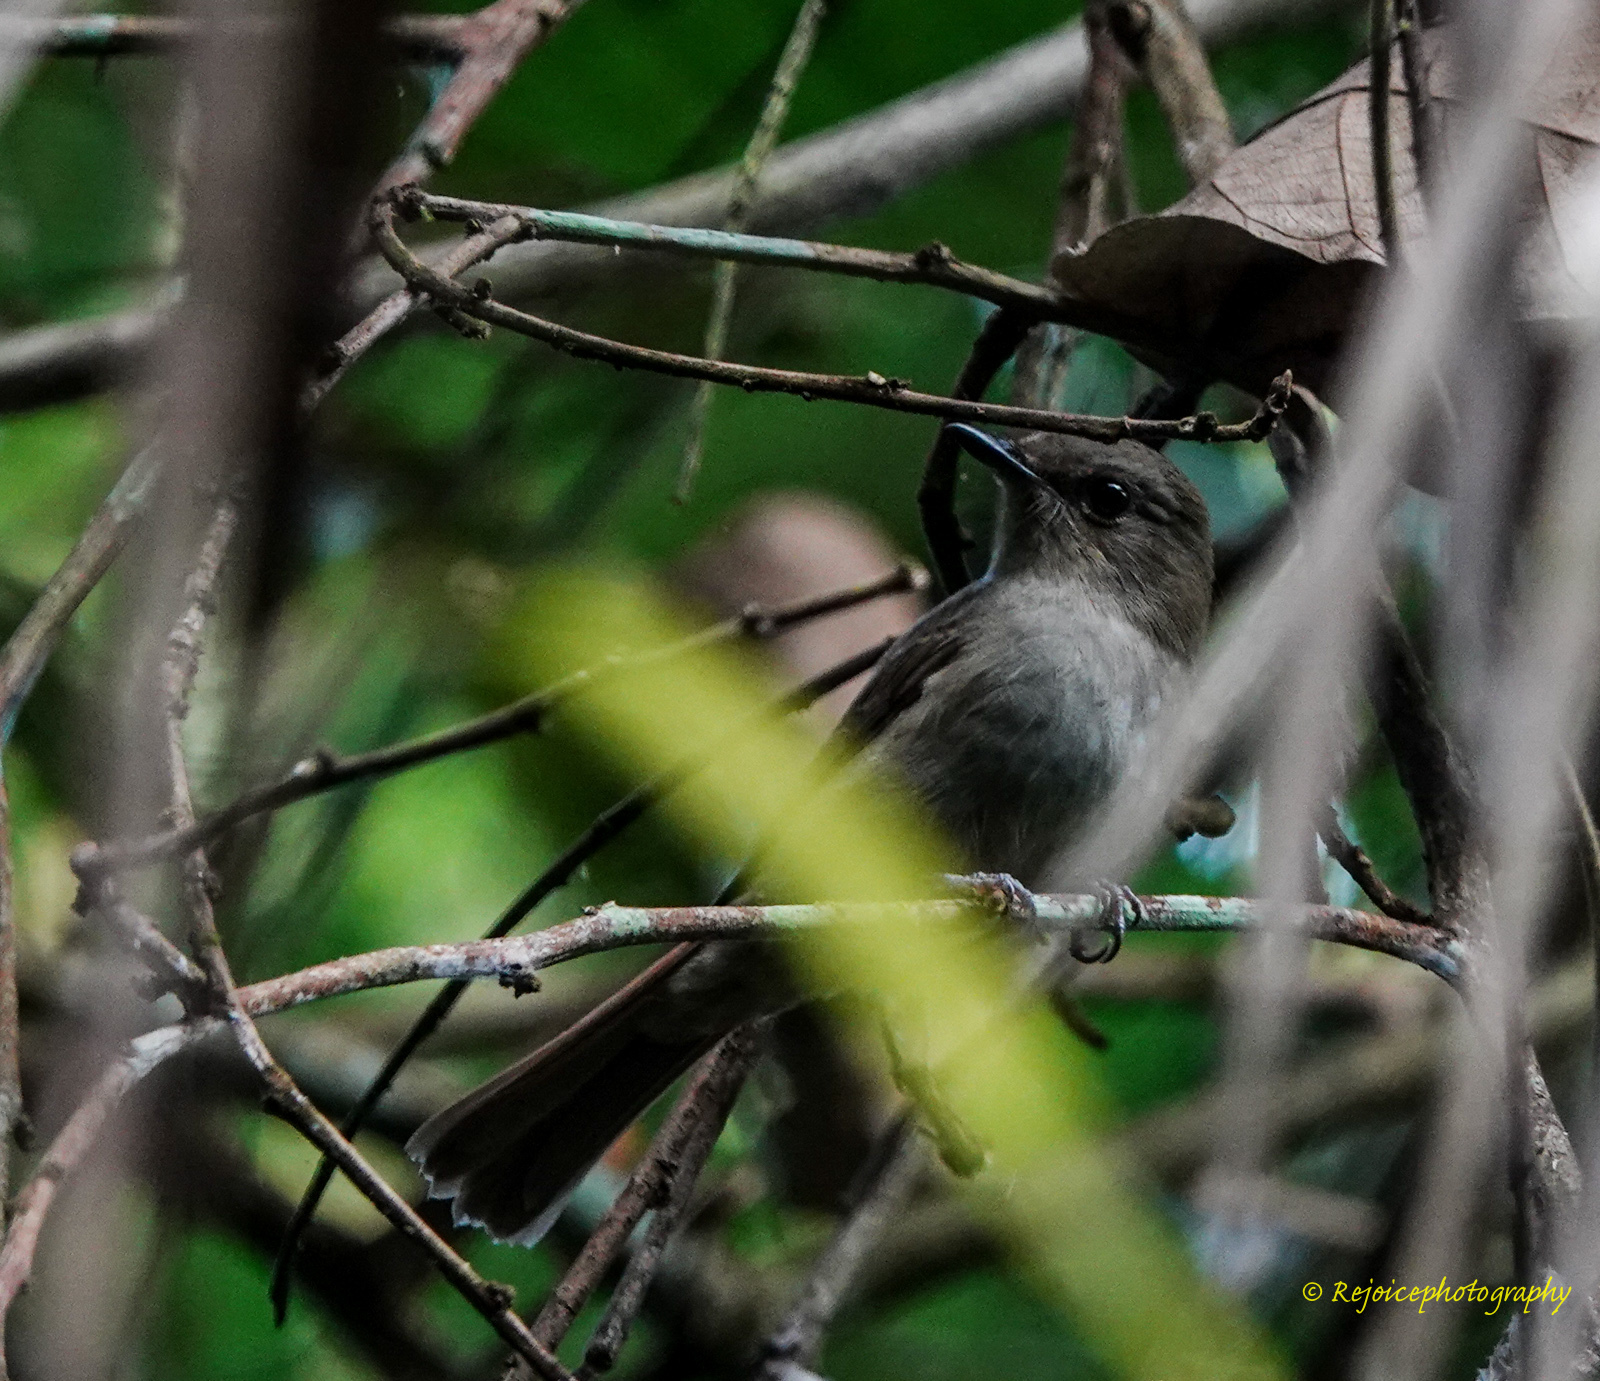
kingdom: Animalia
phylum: Chordata
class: Aves
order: Passeriformes
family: Muscicapidae
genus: Cyornis
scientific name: Cyornis unicolor
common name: Pale blue flycatcher
